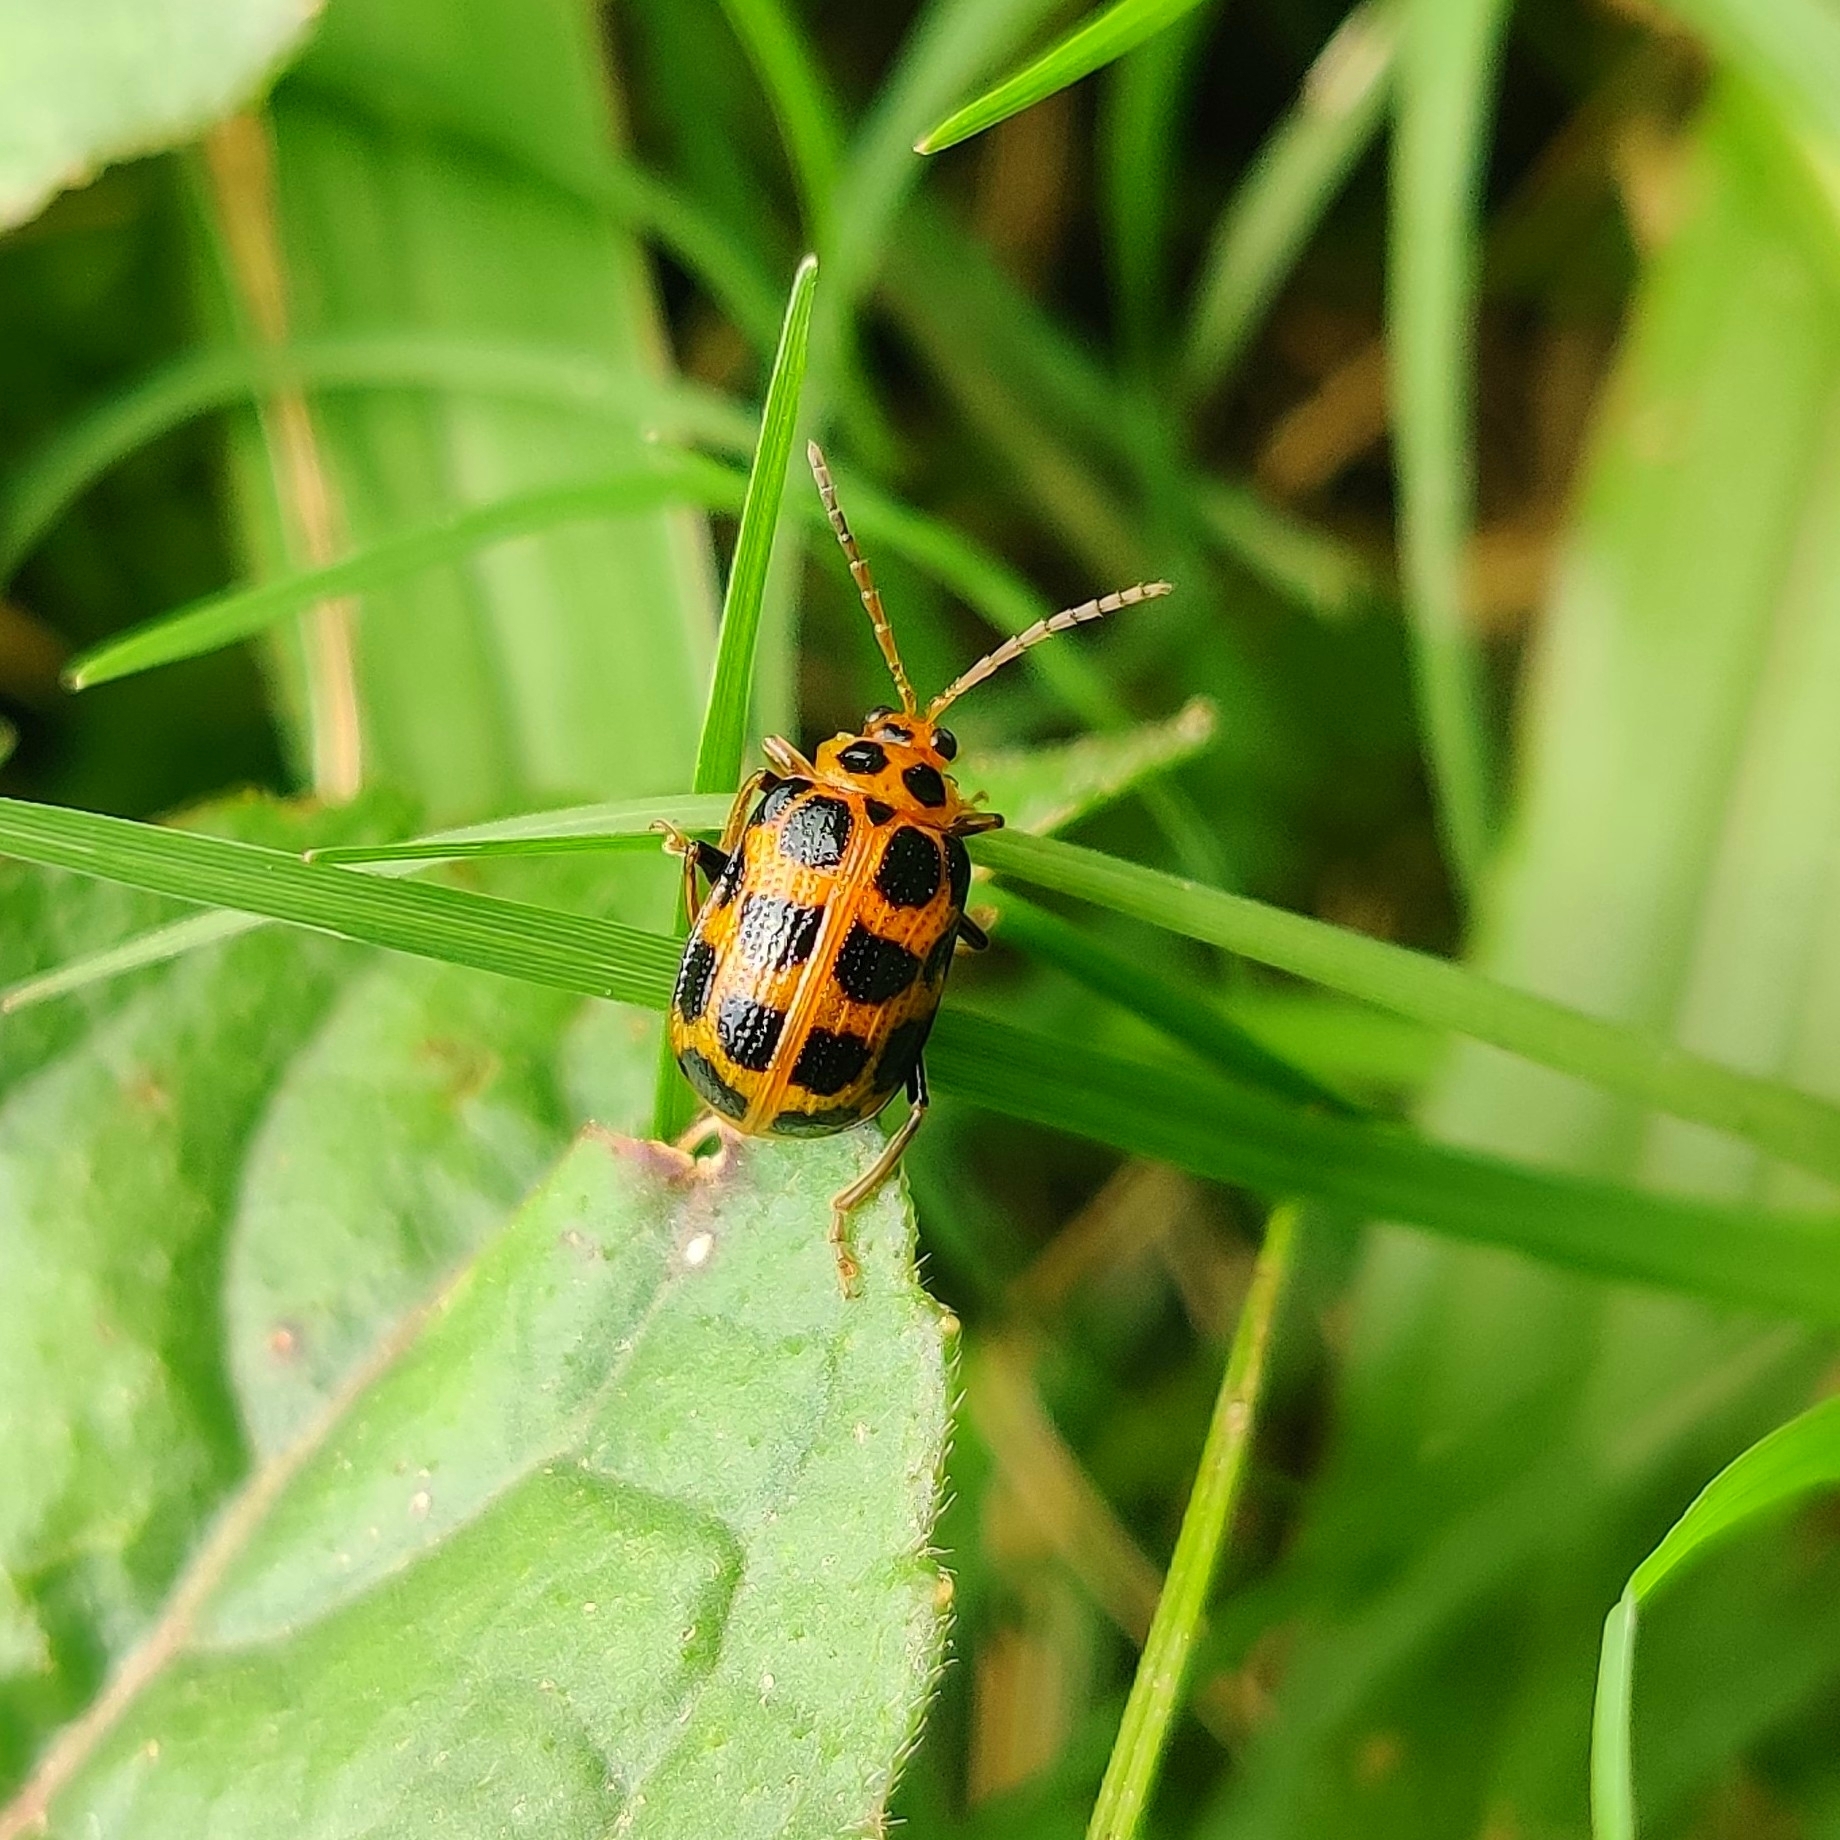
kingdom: Animalia
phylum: Arthropoda
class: Insecta
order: Coleoptera
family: Chrysomelidae
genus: Sphenoraia
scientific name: Sphenoraia
